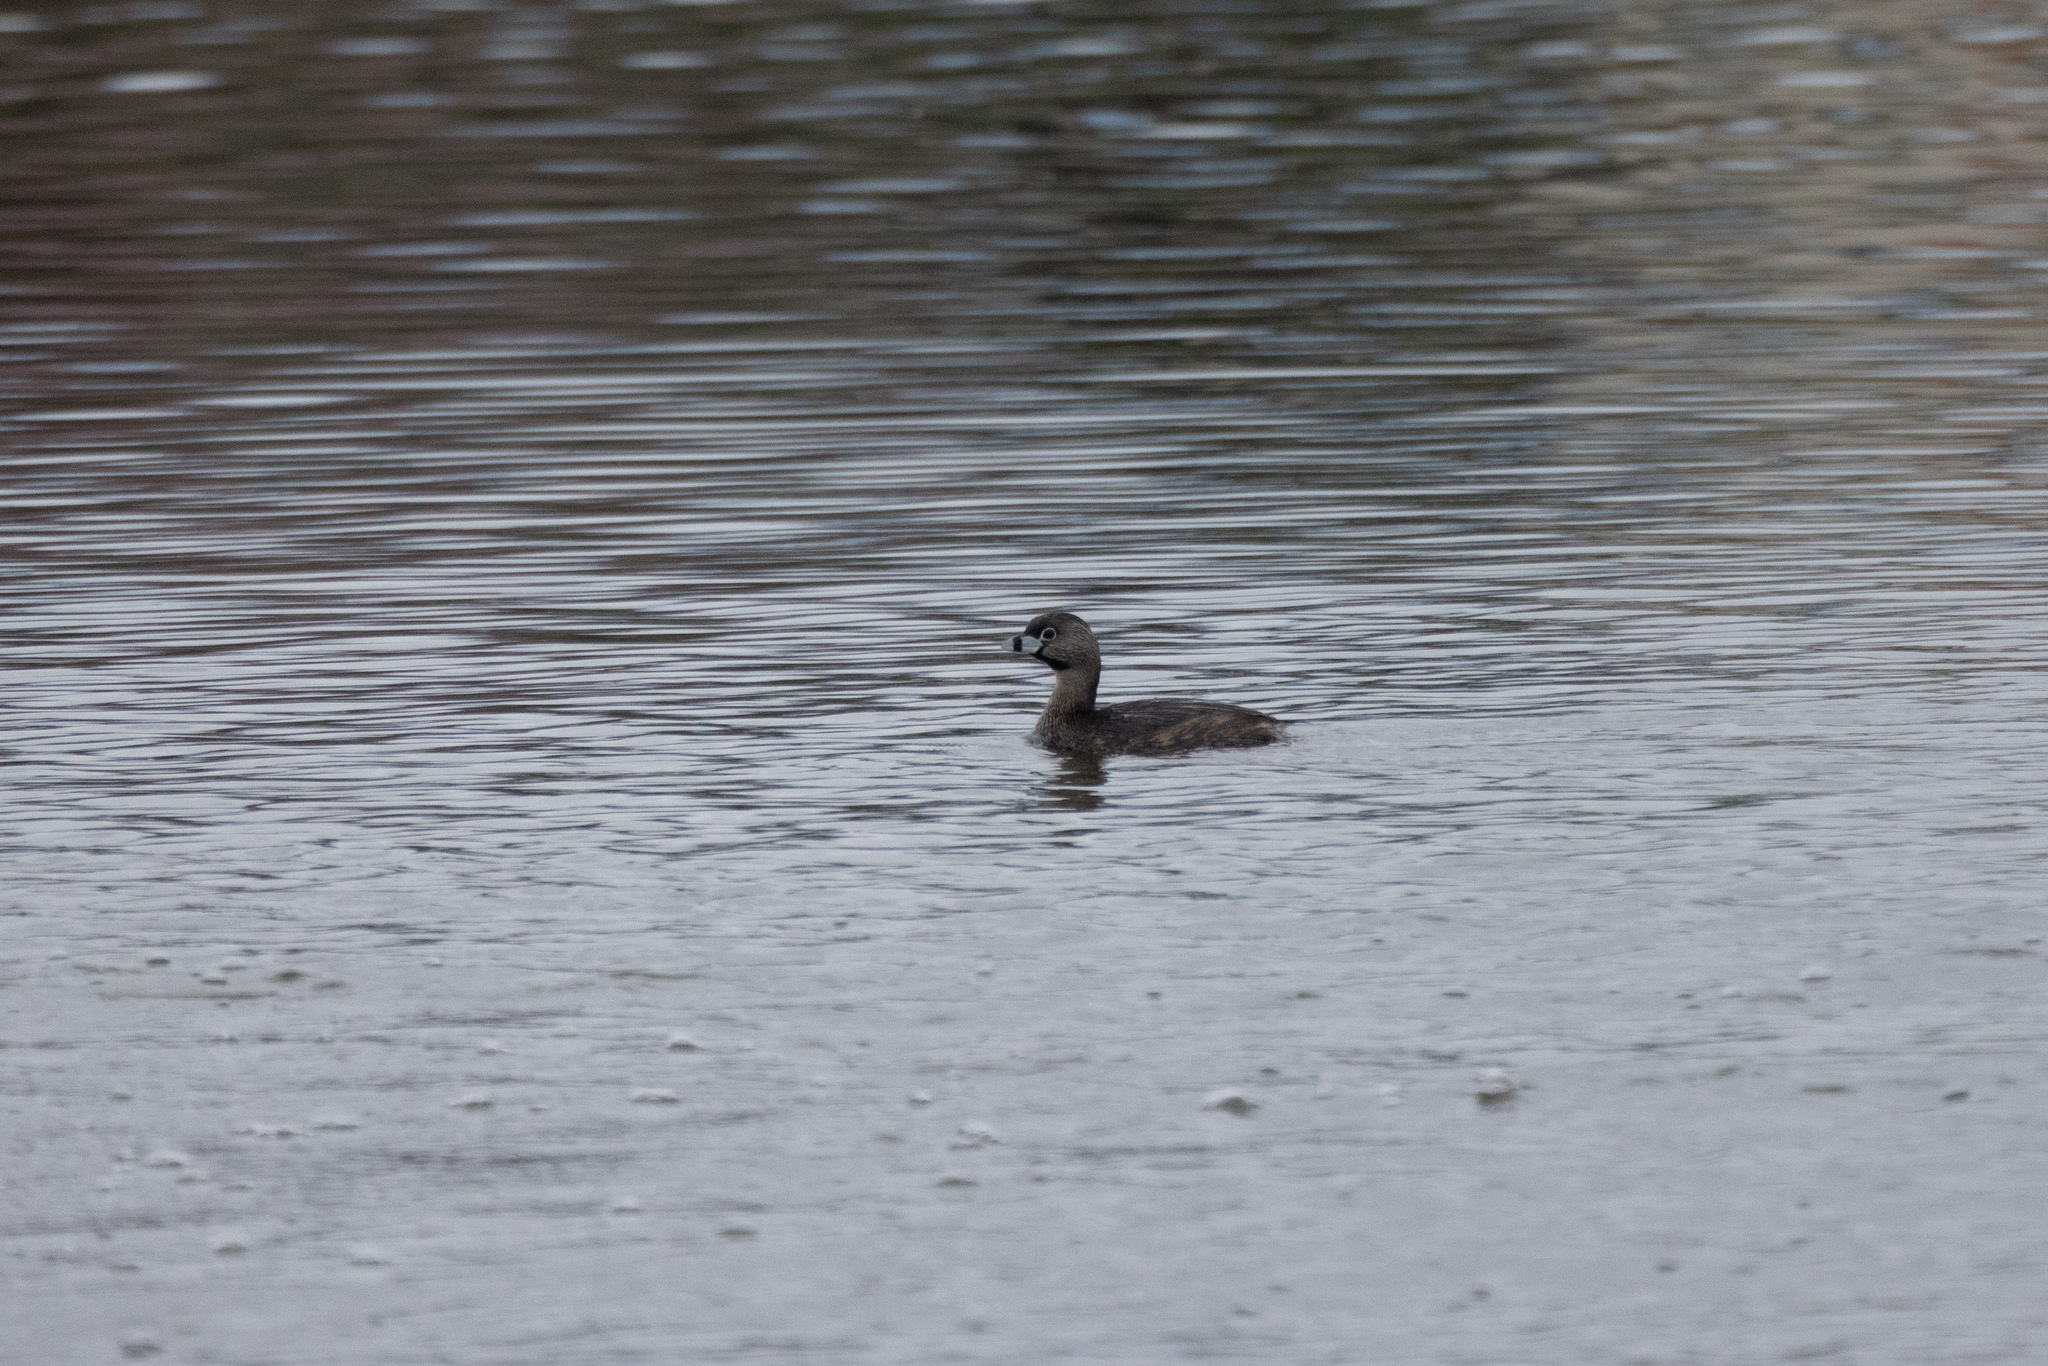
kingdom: Animalia
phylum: Chordata
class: Aves
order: Podicipediformes
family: Podicipedidae
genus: Podilymbus
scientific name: Podilymbus podiceps
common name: Pied-billed grebe
